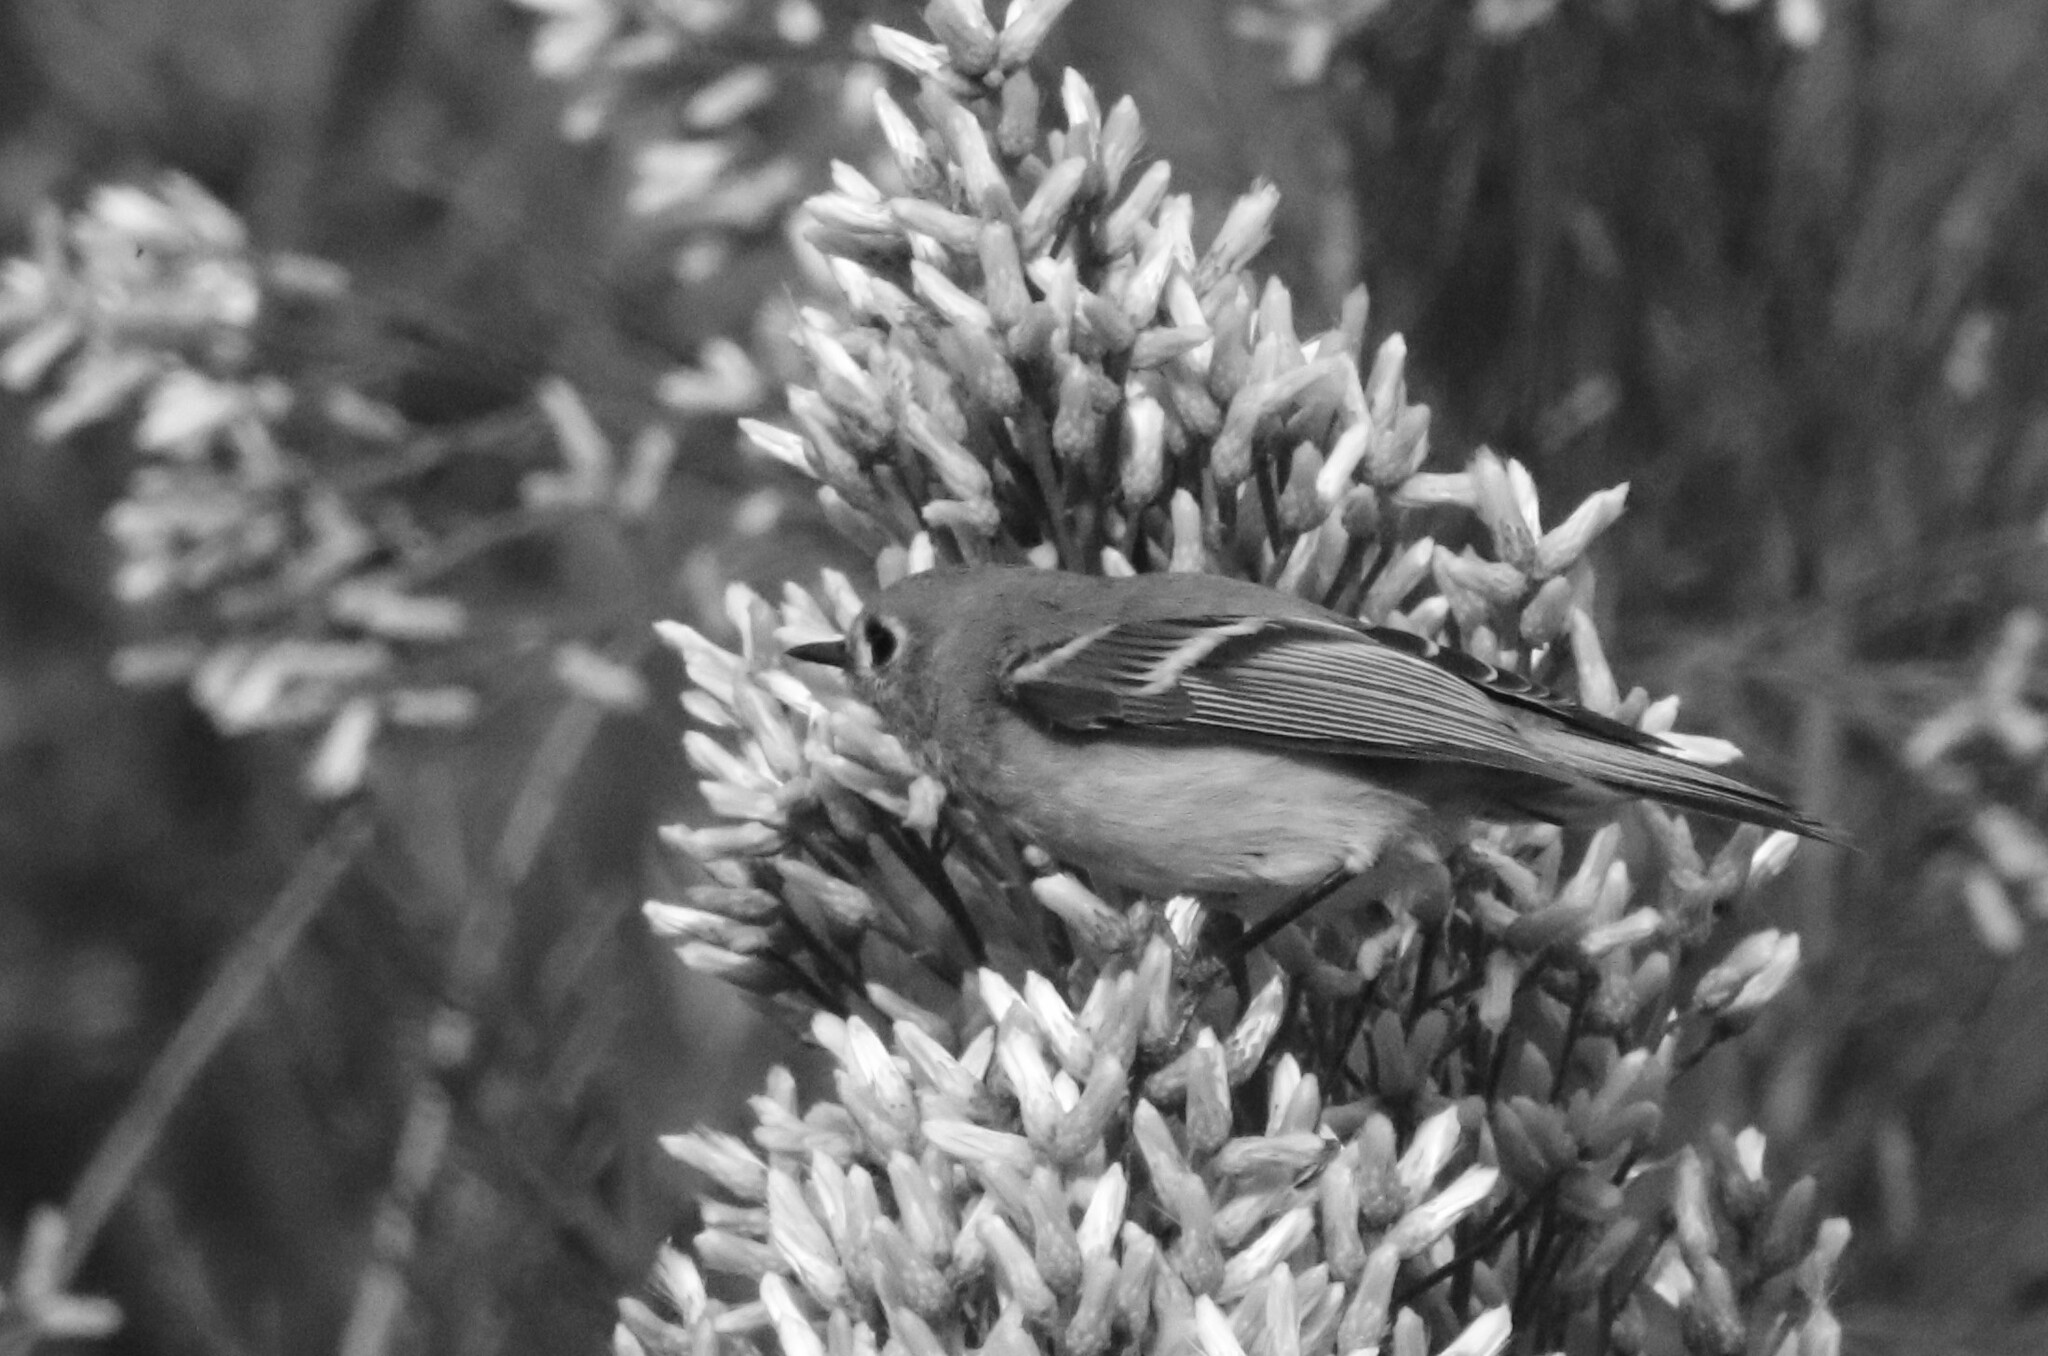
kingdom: Animalia
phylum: Chordata
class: Aves
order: Passeriformes
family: Regulidae
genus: Regulus
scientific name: Regulus calendula
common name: Ruby-crowned kinglet
